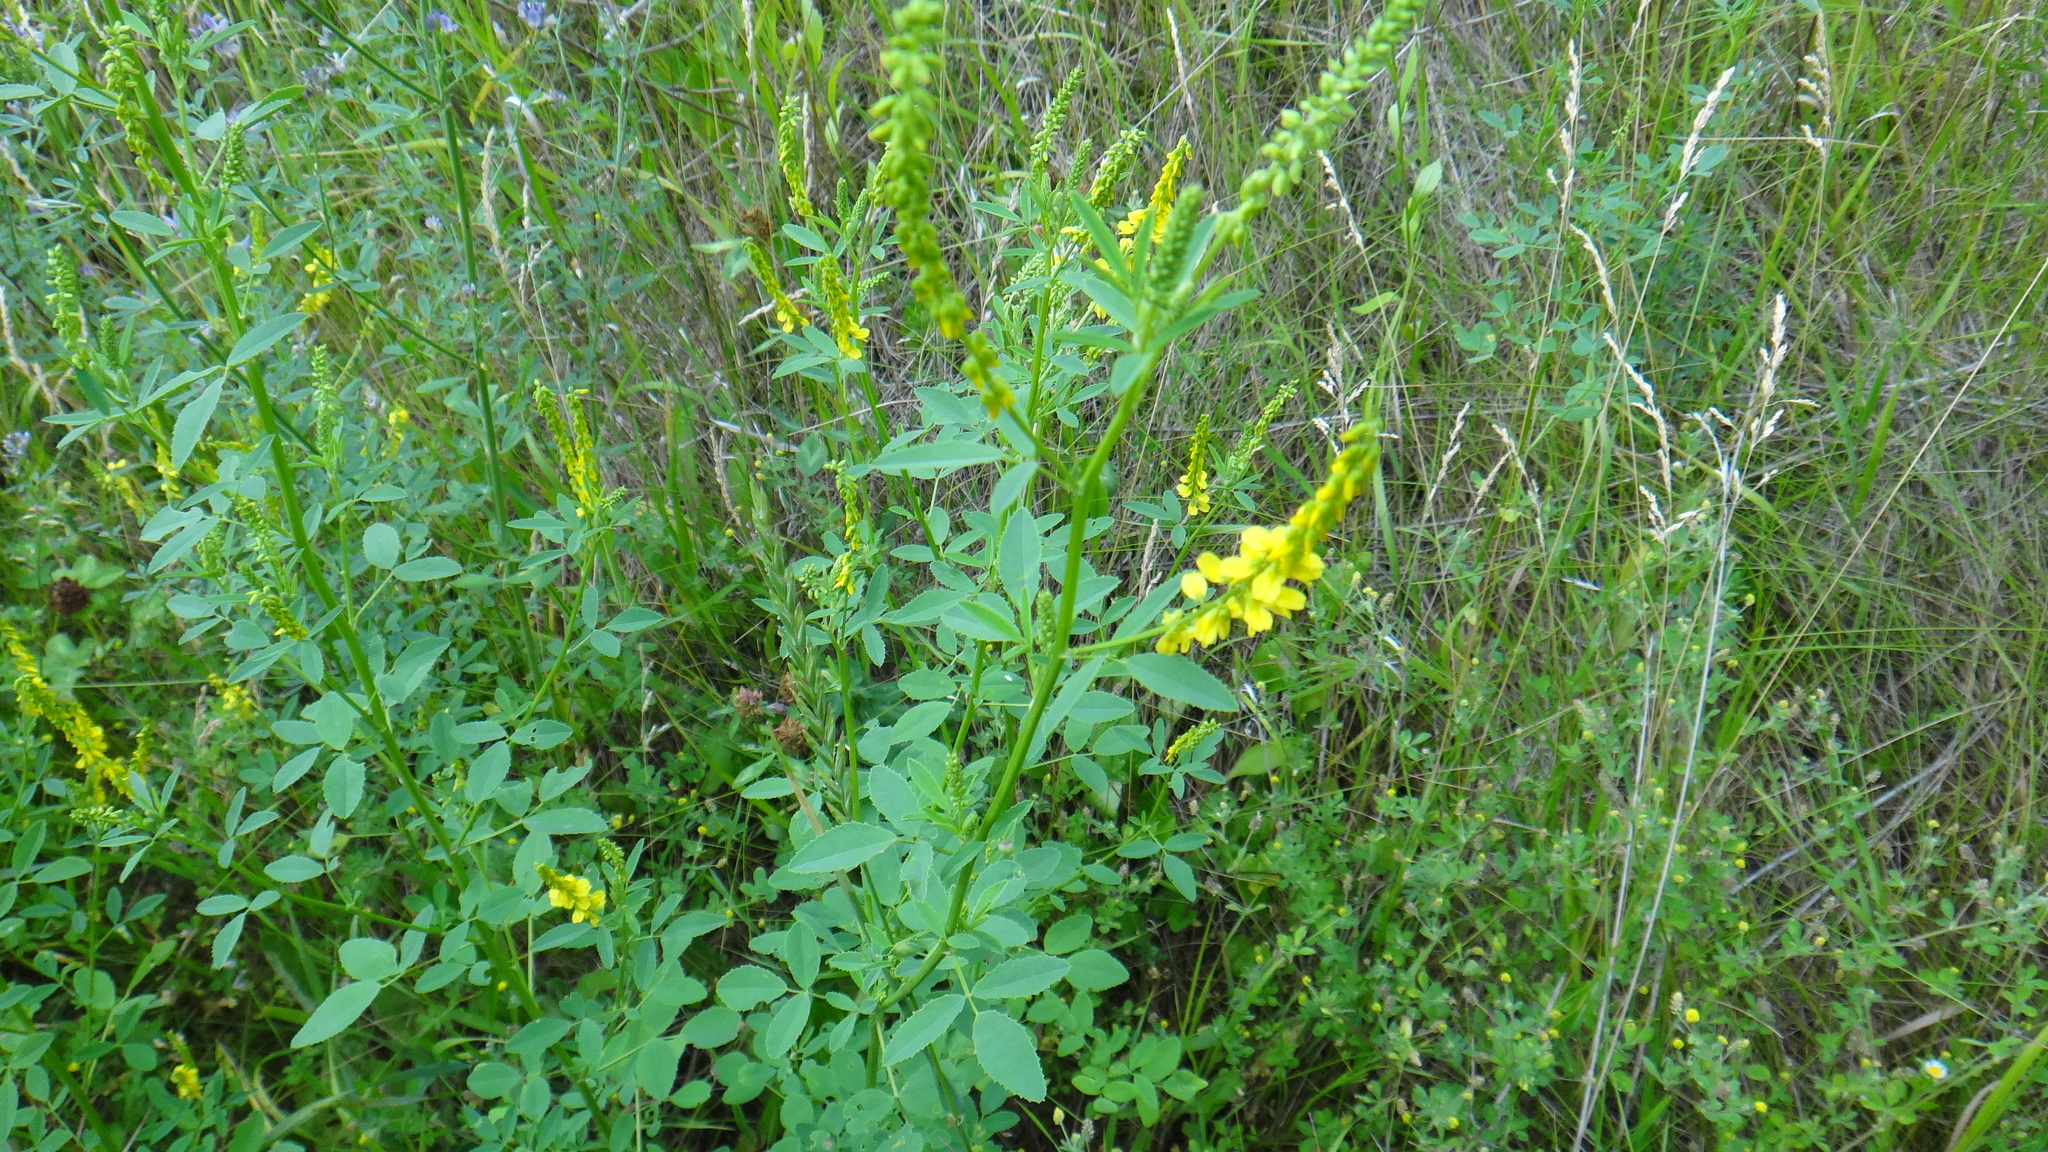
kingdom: Plantae
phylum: Tracheophyta
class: Magnoliopsida
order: Fabales
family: Fabaceae
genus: Melilotus
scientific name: Melilotus officinalis
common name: Sweetclover
